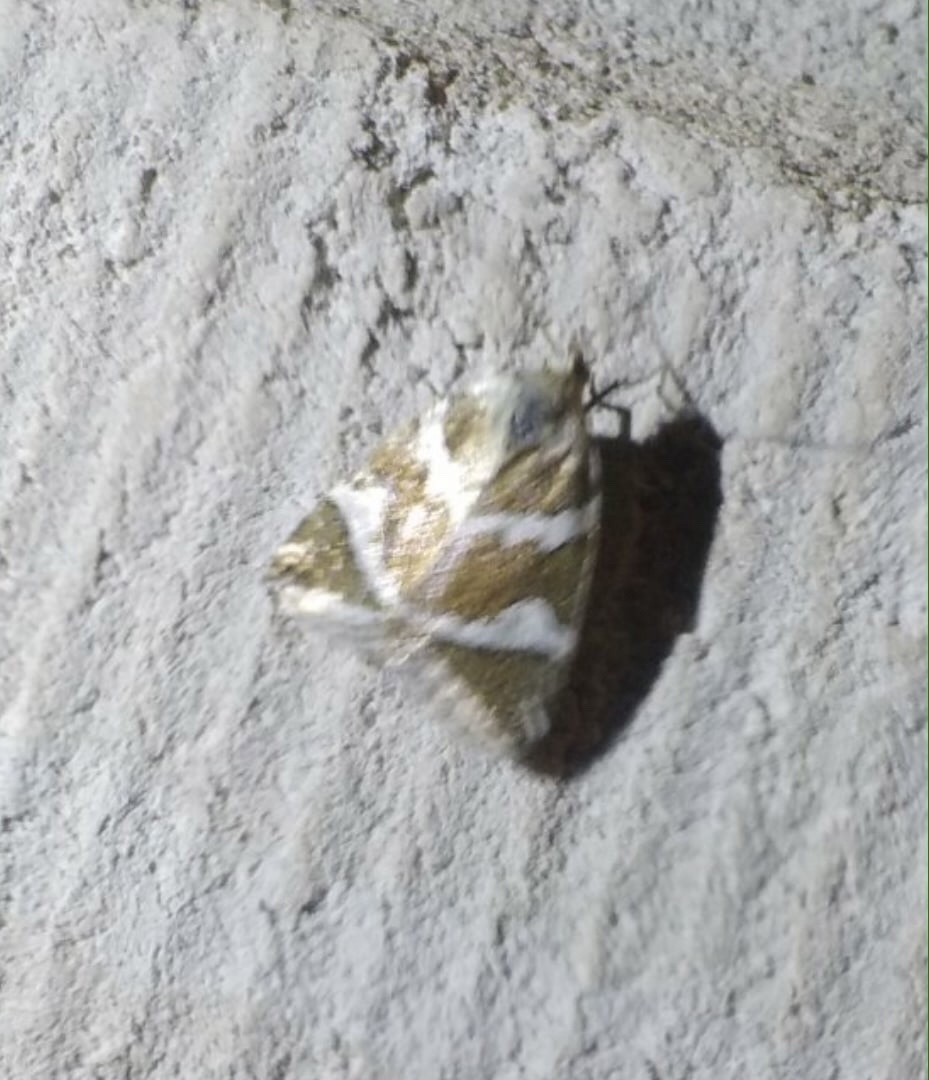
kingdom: Animalia
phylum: Arthropoda
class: Insecta
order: Lepidoptera
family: Noctuidae
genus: Deltote
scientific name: Deltote bankiana
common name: Silver barred
